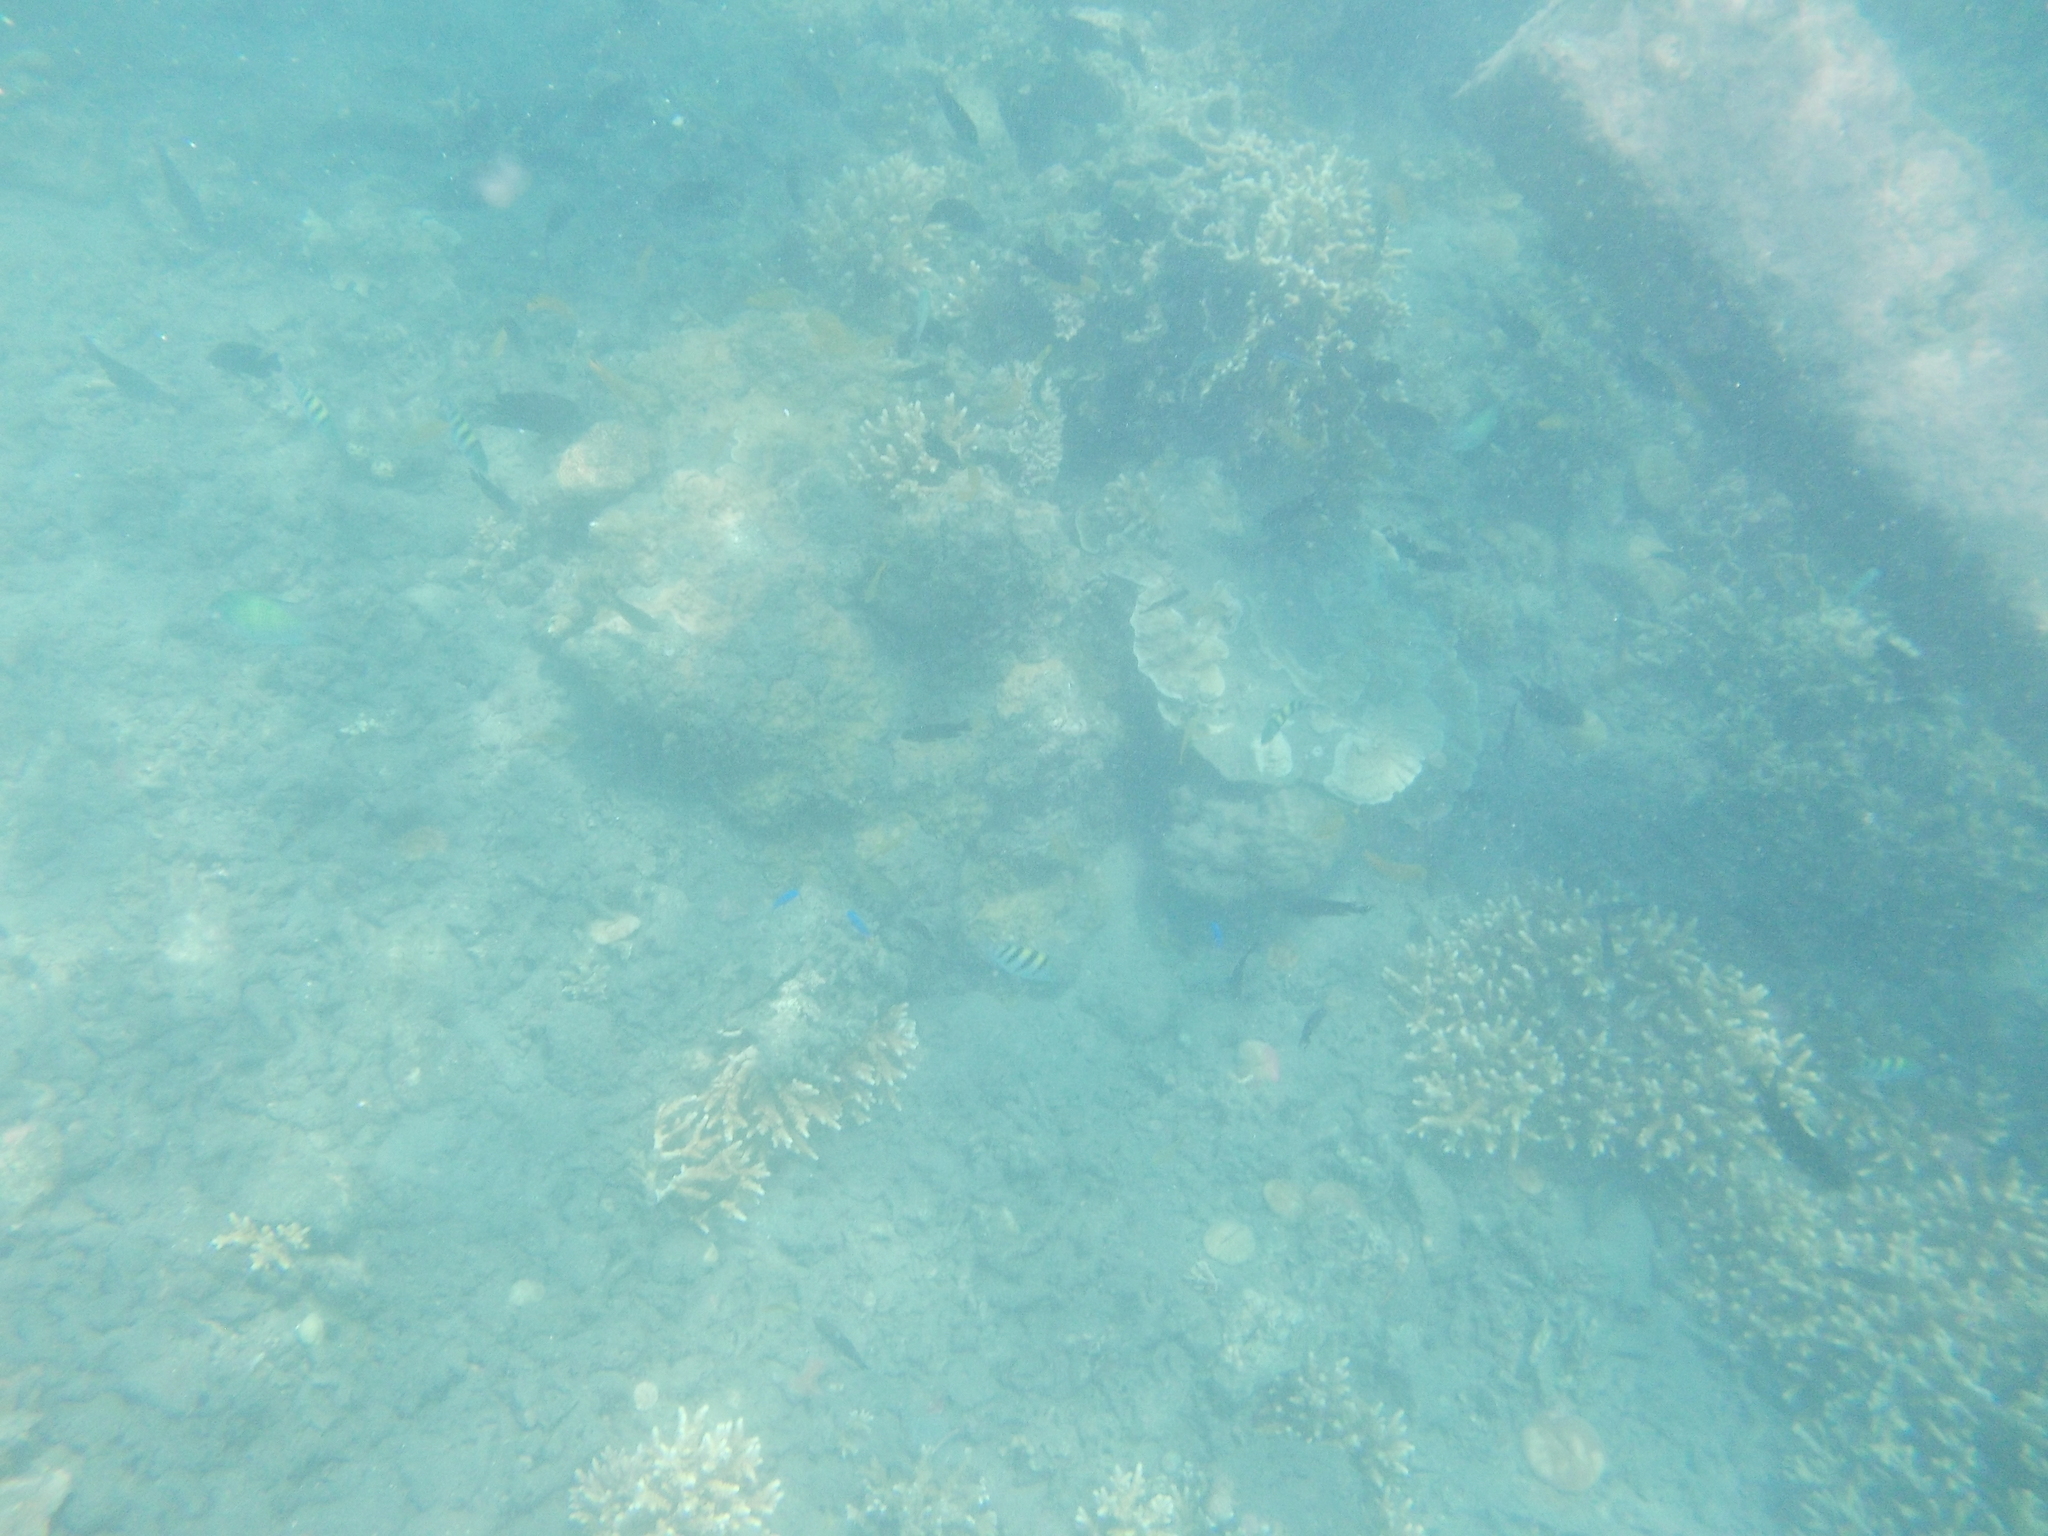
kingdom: Animalia
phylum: Chordata
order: Perciformes
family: Pomacentridae
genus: Abudefduf
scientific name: Abudefduf vaigiensis
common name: Indo-pacific sergeant
